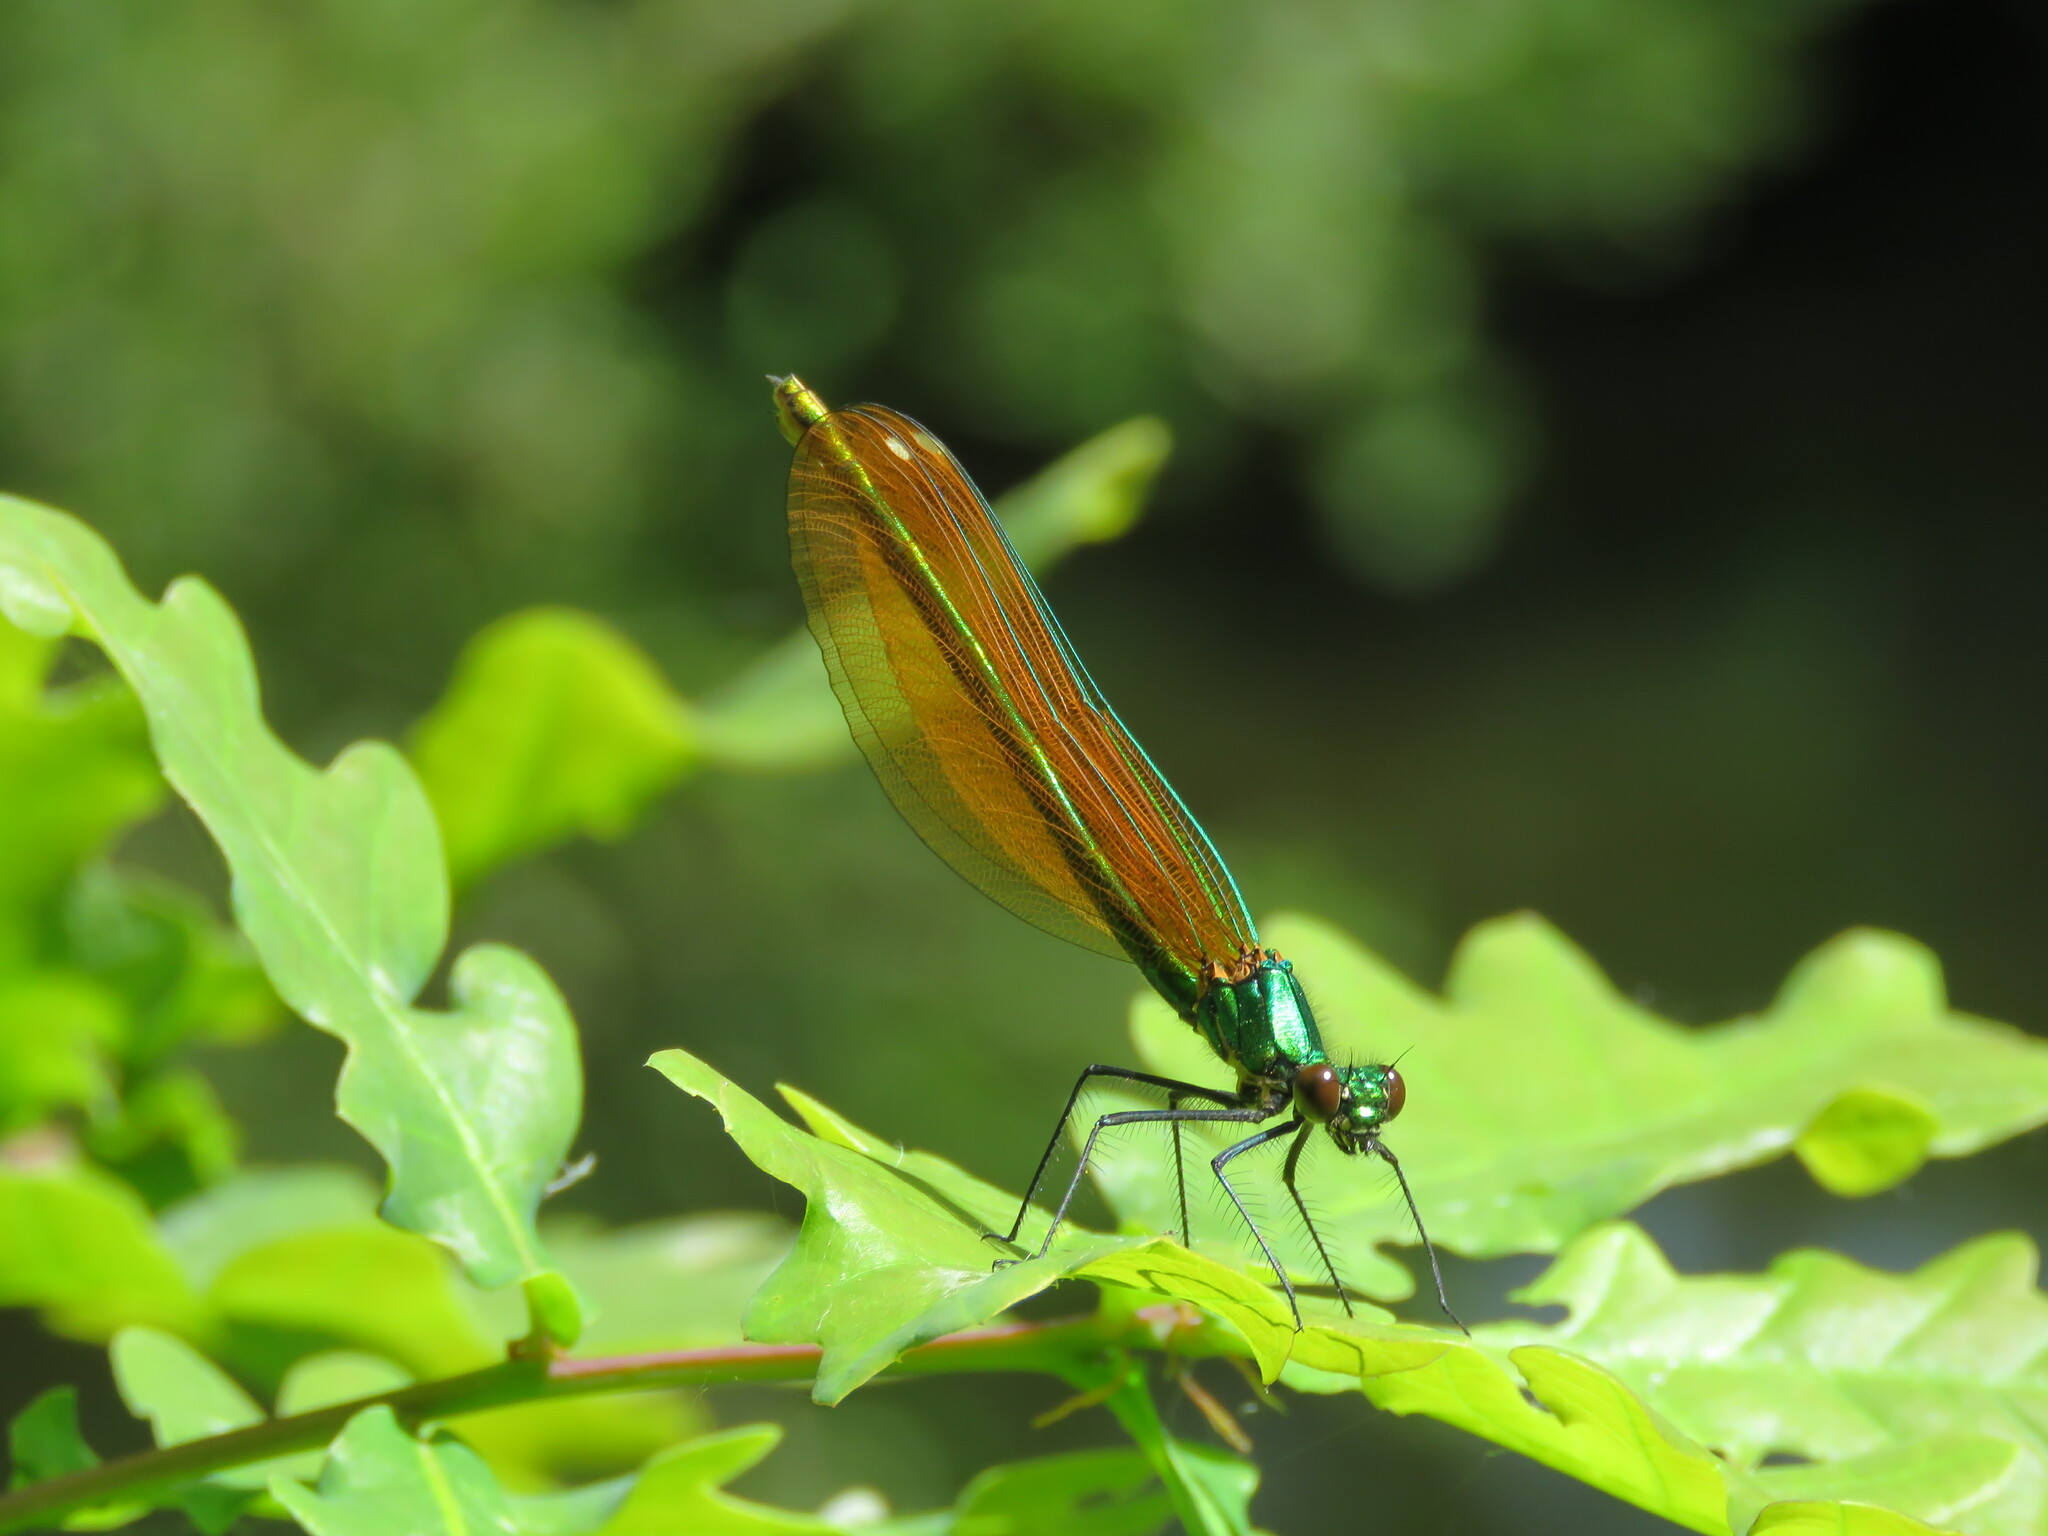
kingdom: Animalia
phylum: Arthropoda
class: Insecta
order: Odonata
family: Calopterygidae
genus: Calopteryx
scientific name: Calopteryx virgo
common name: Beautiful demoiselle
